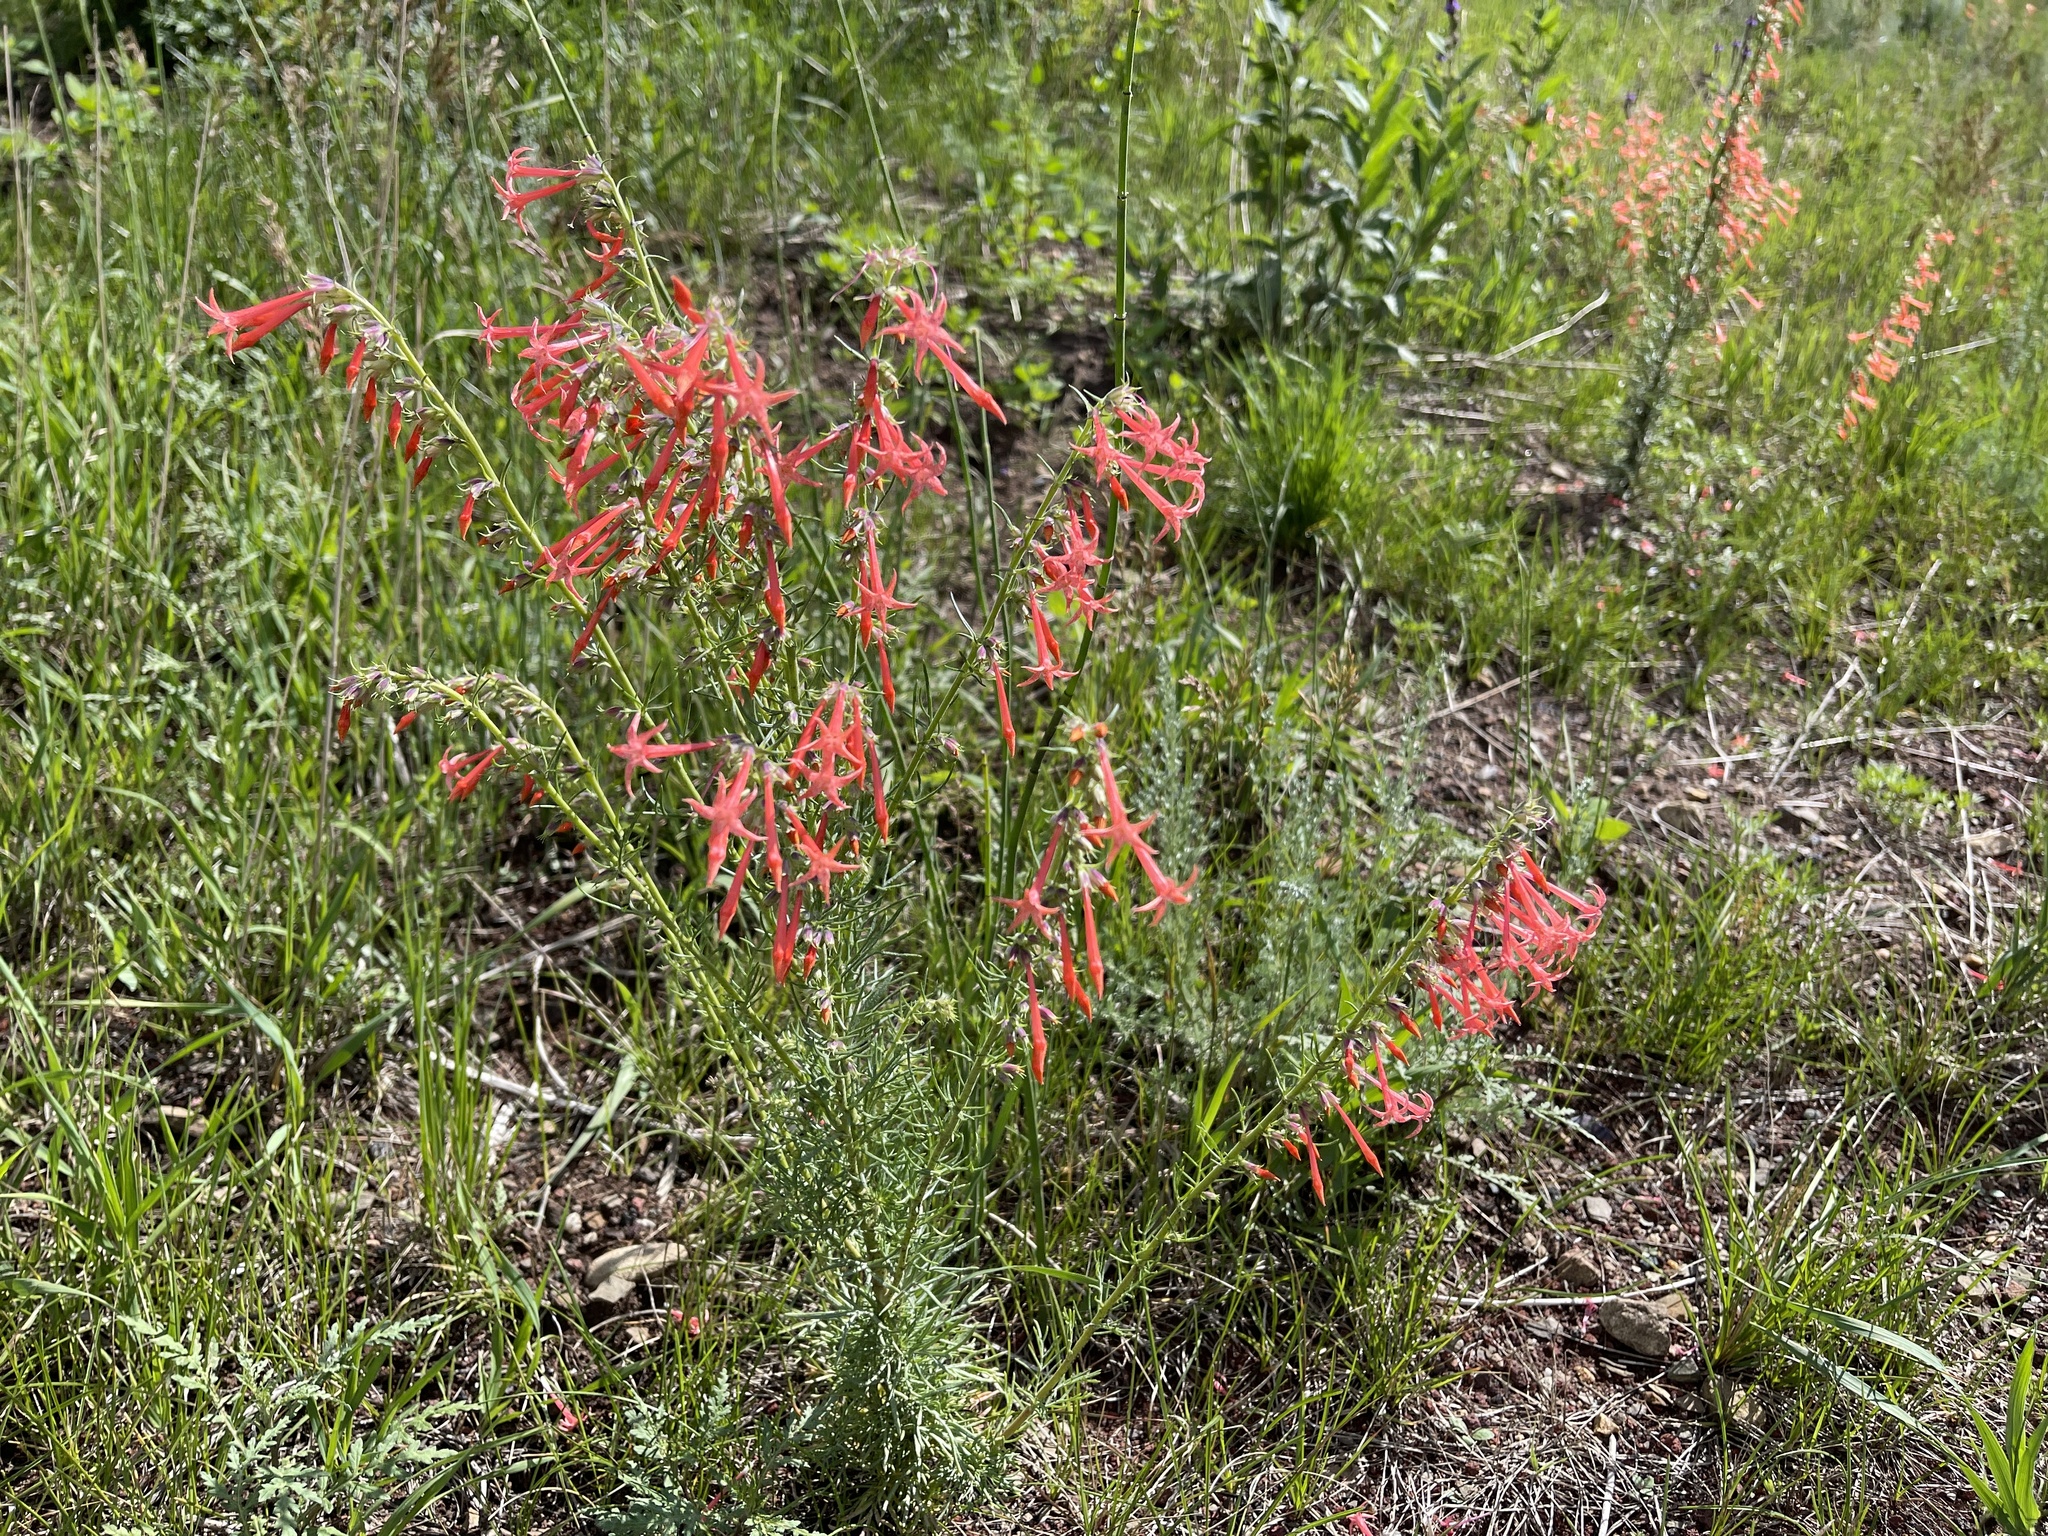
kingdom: Plantae
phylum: Tracheophyta
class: Magnoliopsida
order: Ericales
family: Polemoniaceae
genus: Ipomopsis
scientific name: Ipomopsis aggregata
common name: Scarlet gilia
